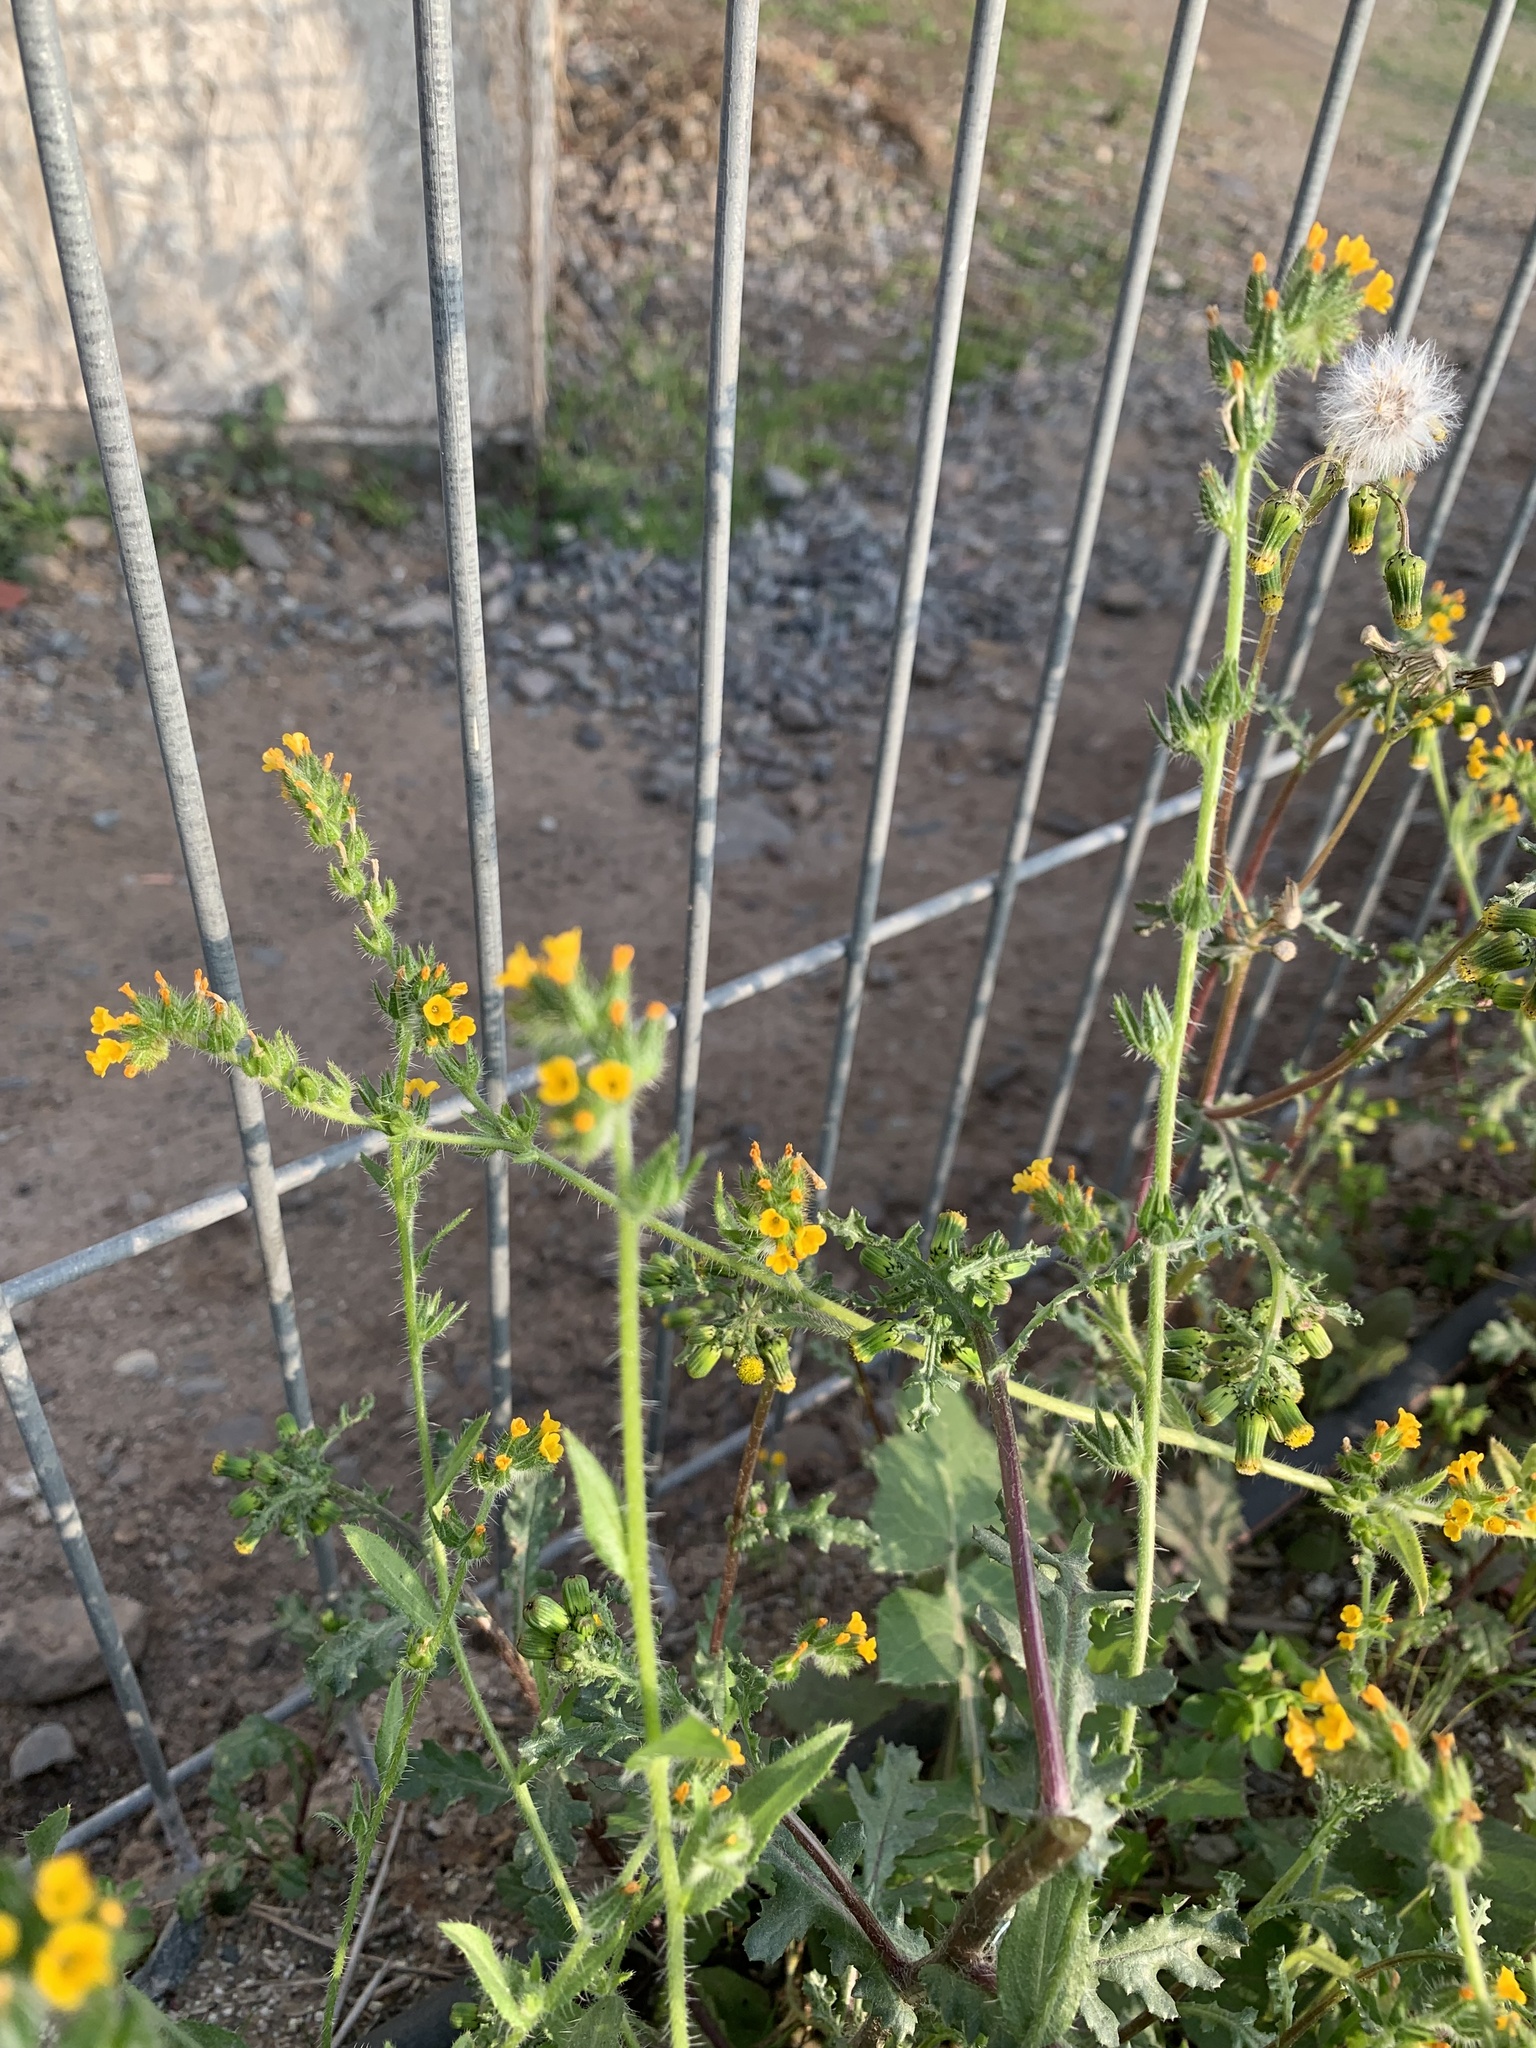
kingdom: Plantae
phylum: Tracheophyta
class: Magnoliopsida
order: Boraginales
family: Boraginaceae
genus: Amsinckia
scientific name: Amsinckia calycina
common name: Hairy fiddleneck
